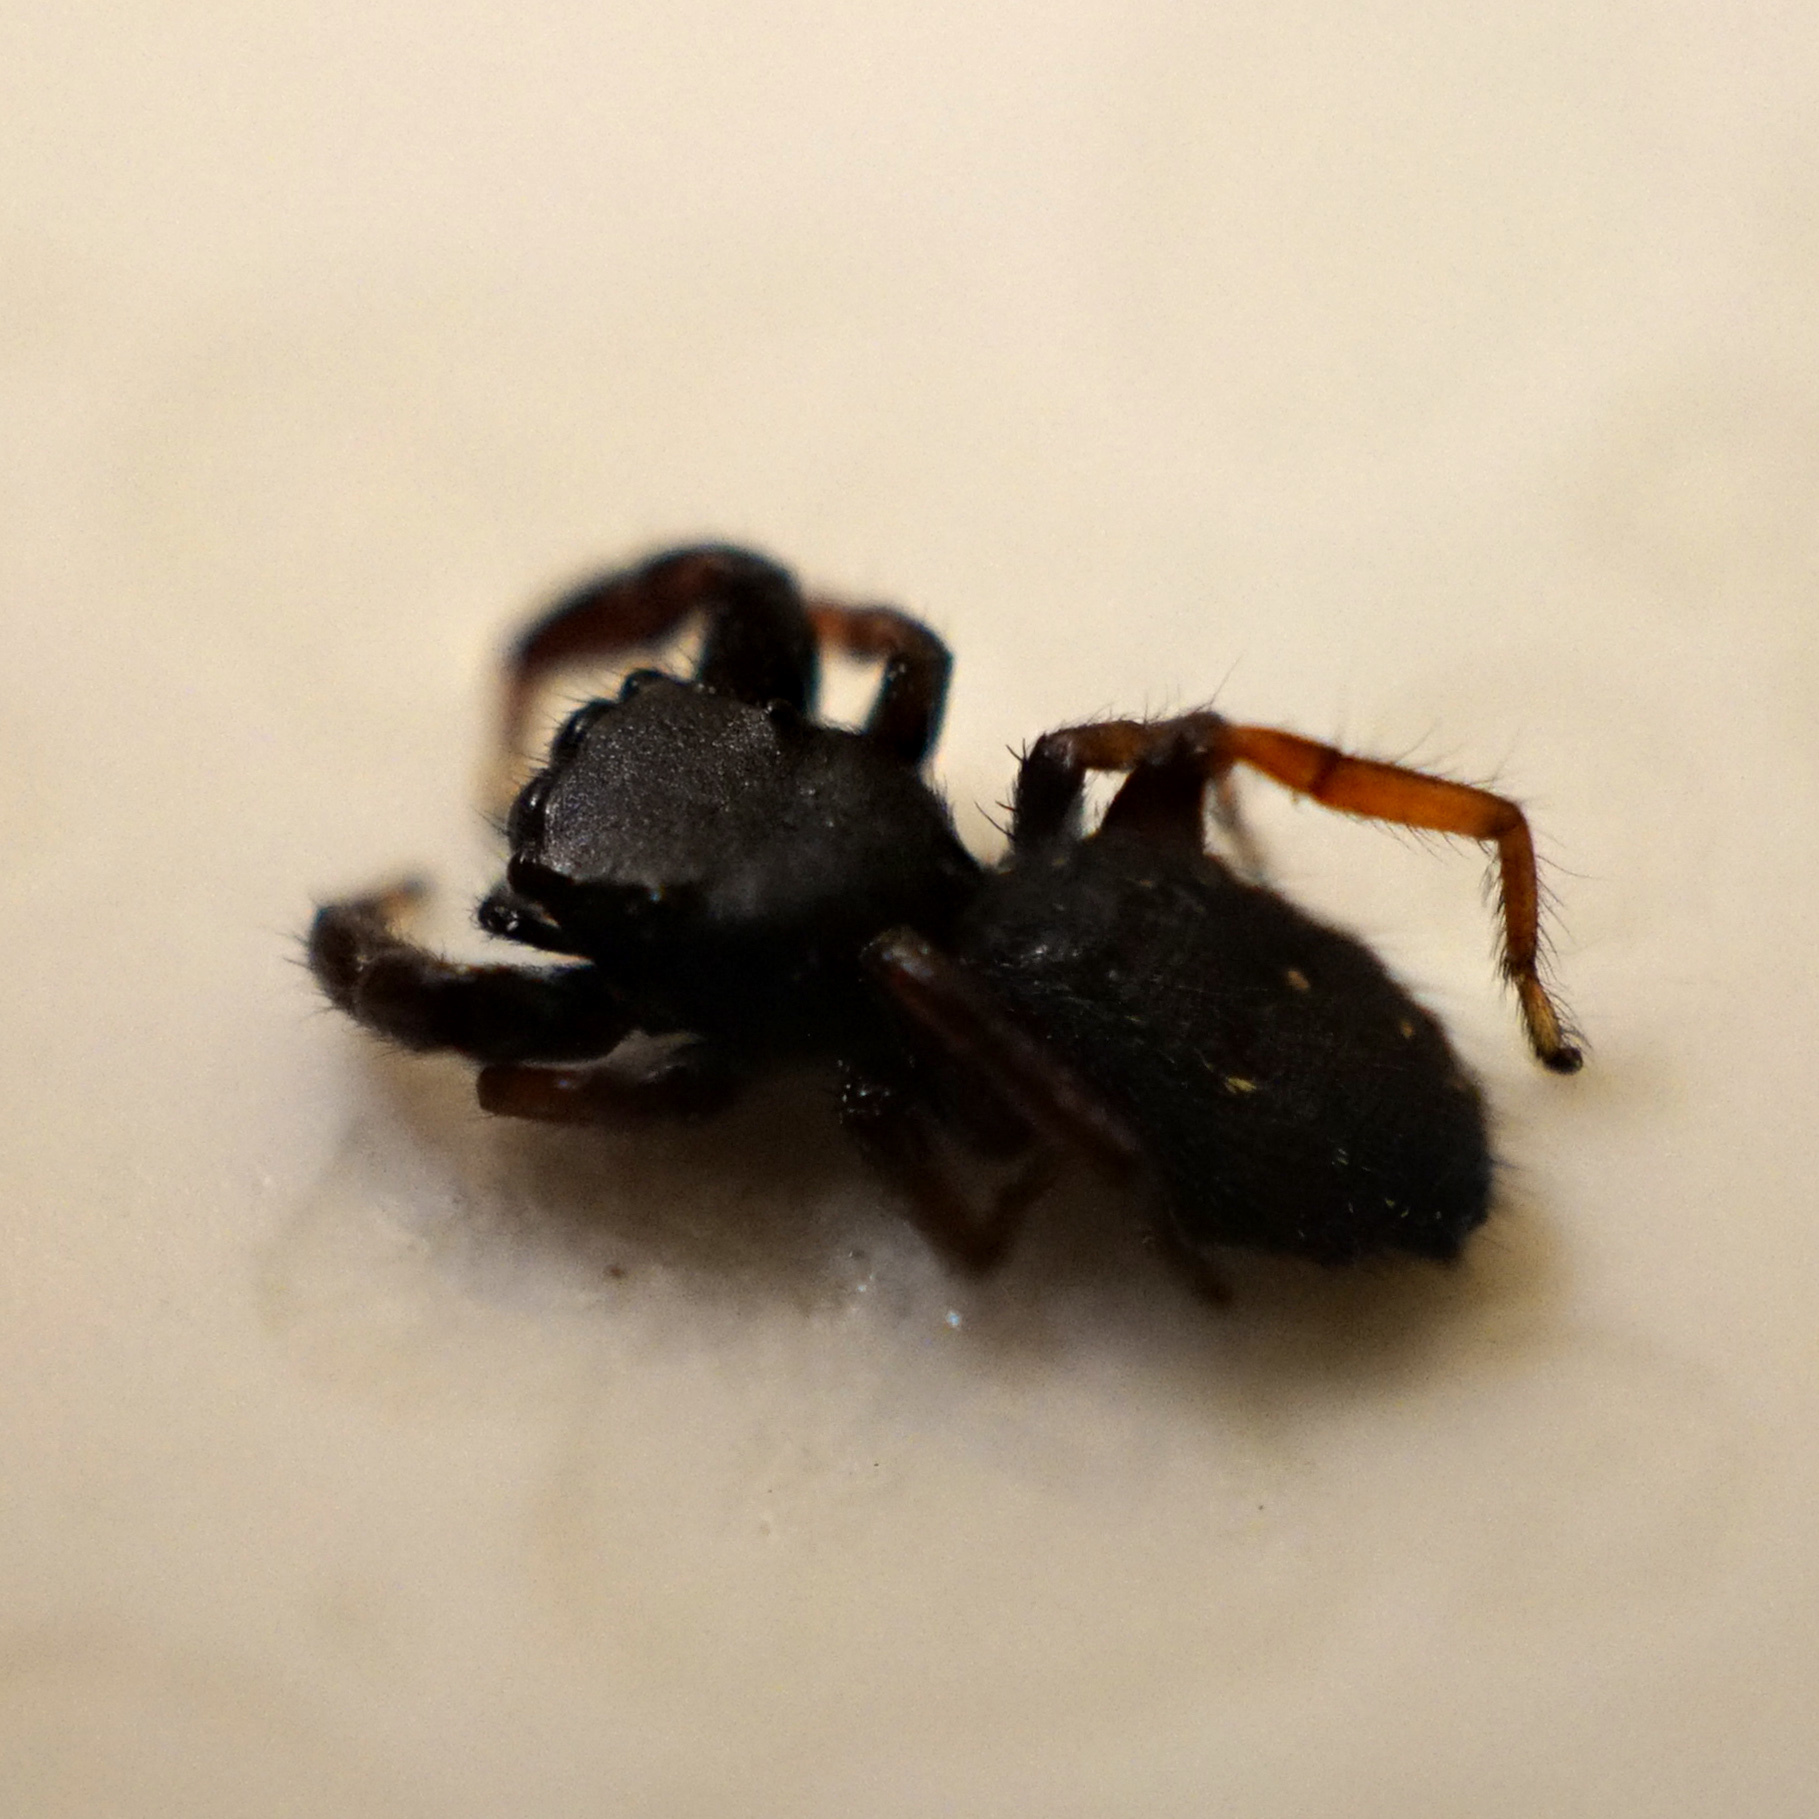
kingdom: Animalia
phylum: Arthropoda
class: Arachnida
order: Araneae
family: Salticidae
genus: Metacyrba
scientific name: Metacyrba taeniola
